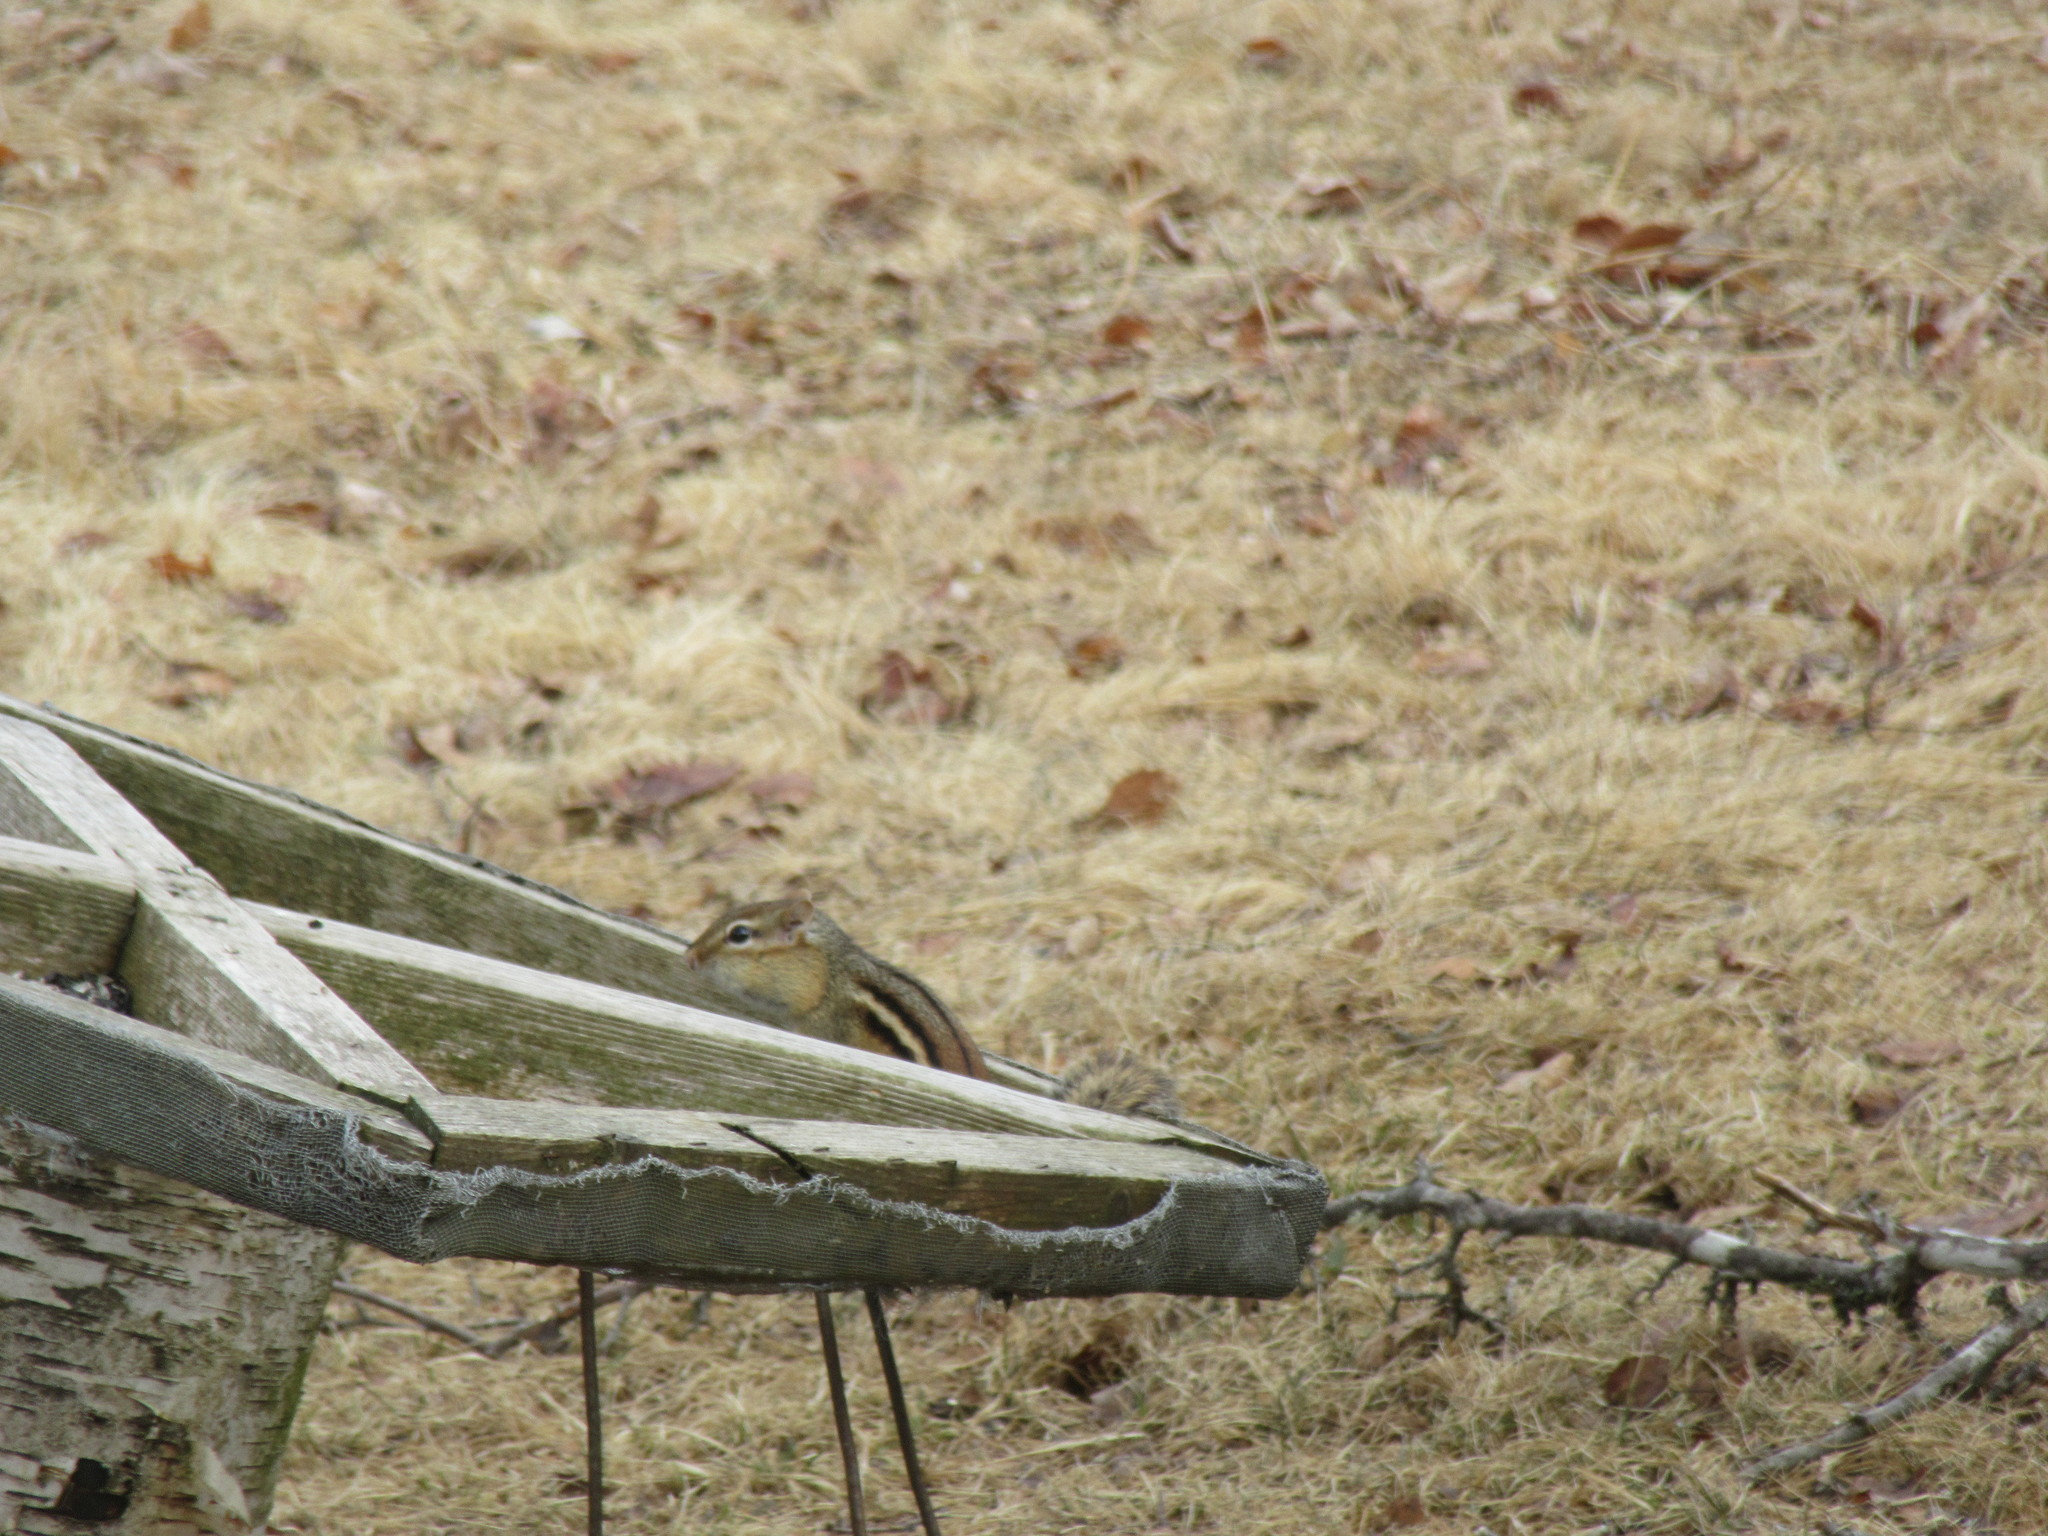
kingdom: Animalia
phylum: Chordata
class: Mammalia
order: Rodentia
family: Sciuridae
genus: Tamias
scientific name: Tamias striatus
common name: Eastern chipmunk
